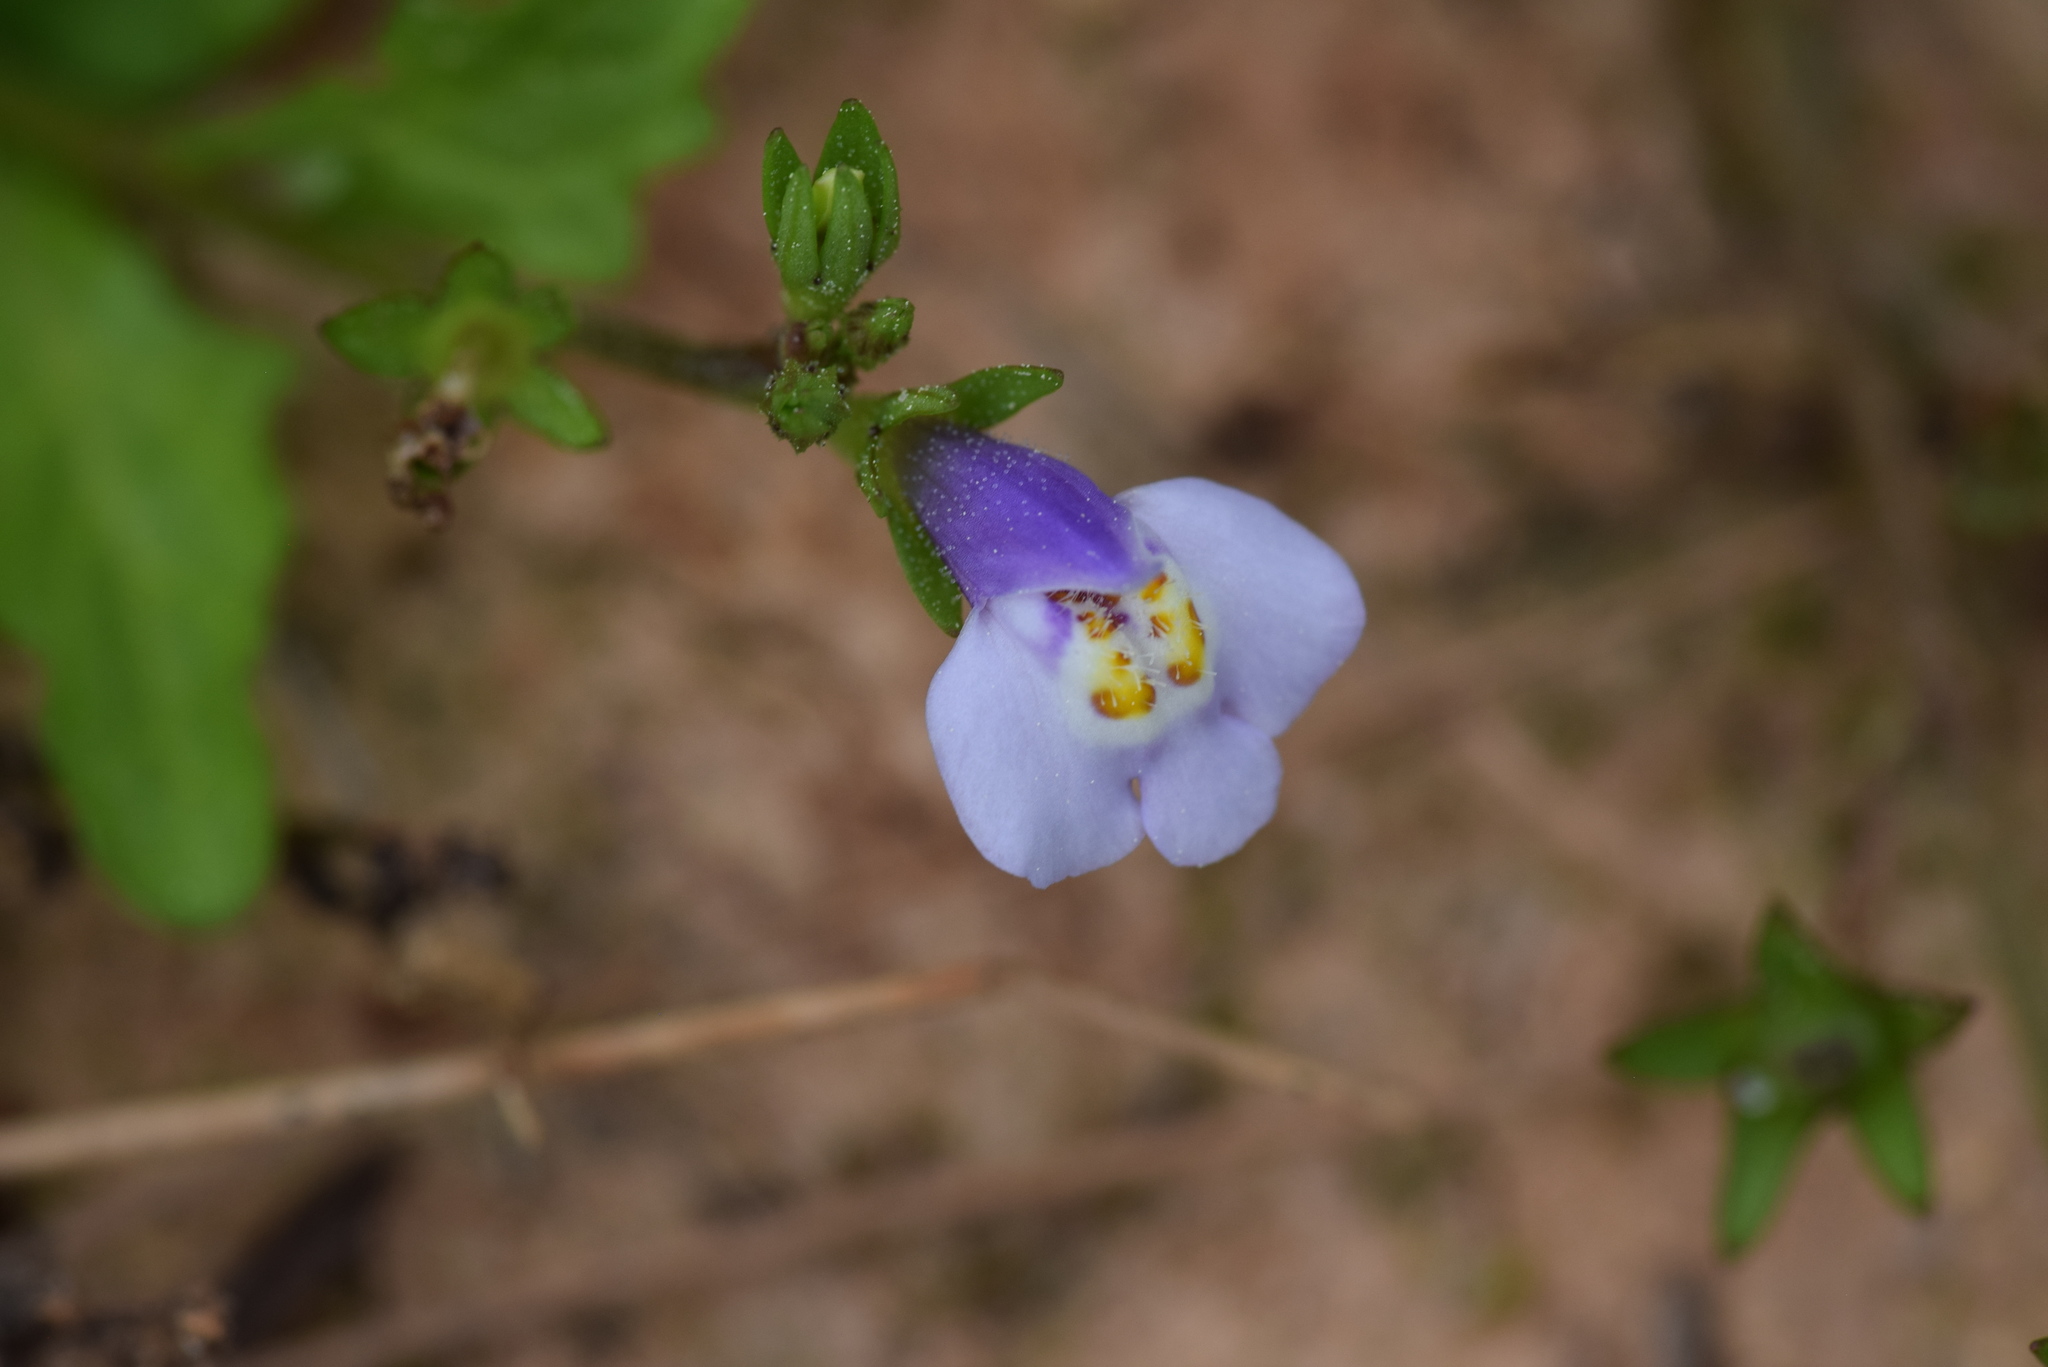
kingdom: Plantae
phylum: Tracheophyta
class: Magnoliopsida
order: Lamiales
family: Mazaceae
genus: Mazus
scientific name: Mazus pumilus
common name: Japanese mazus
